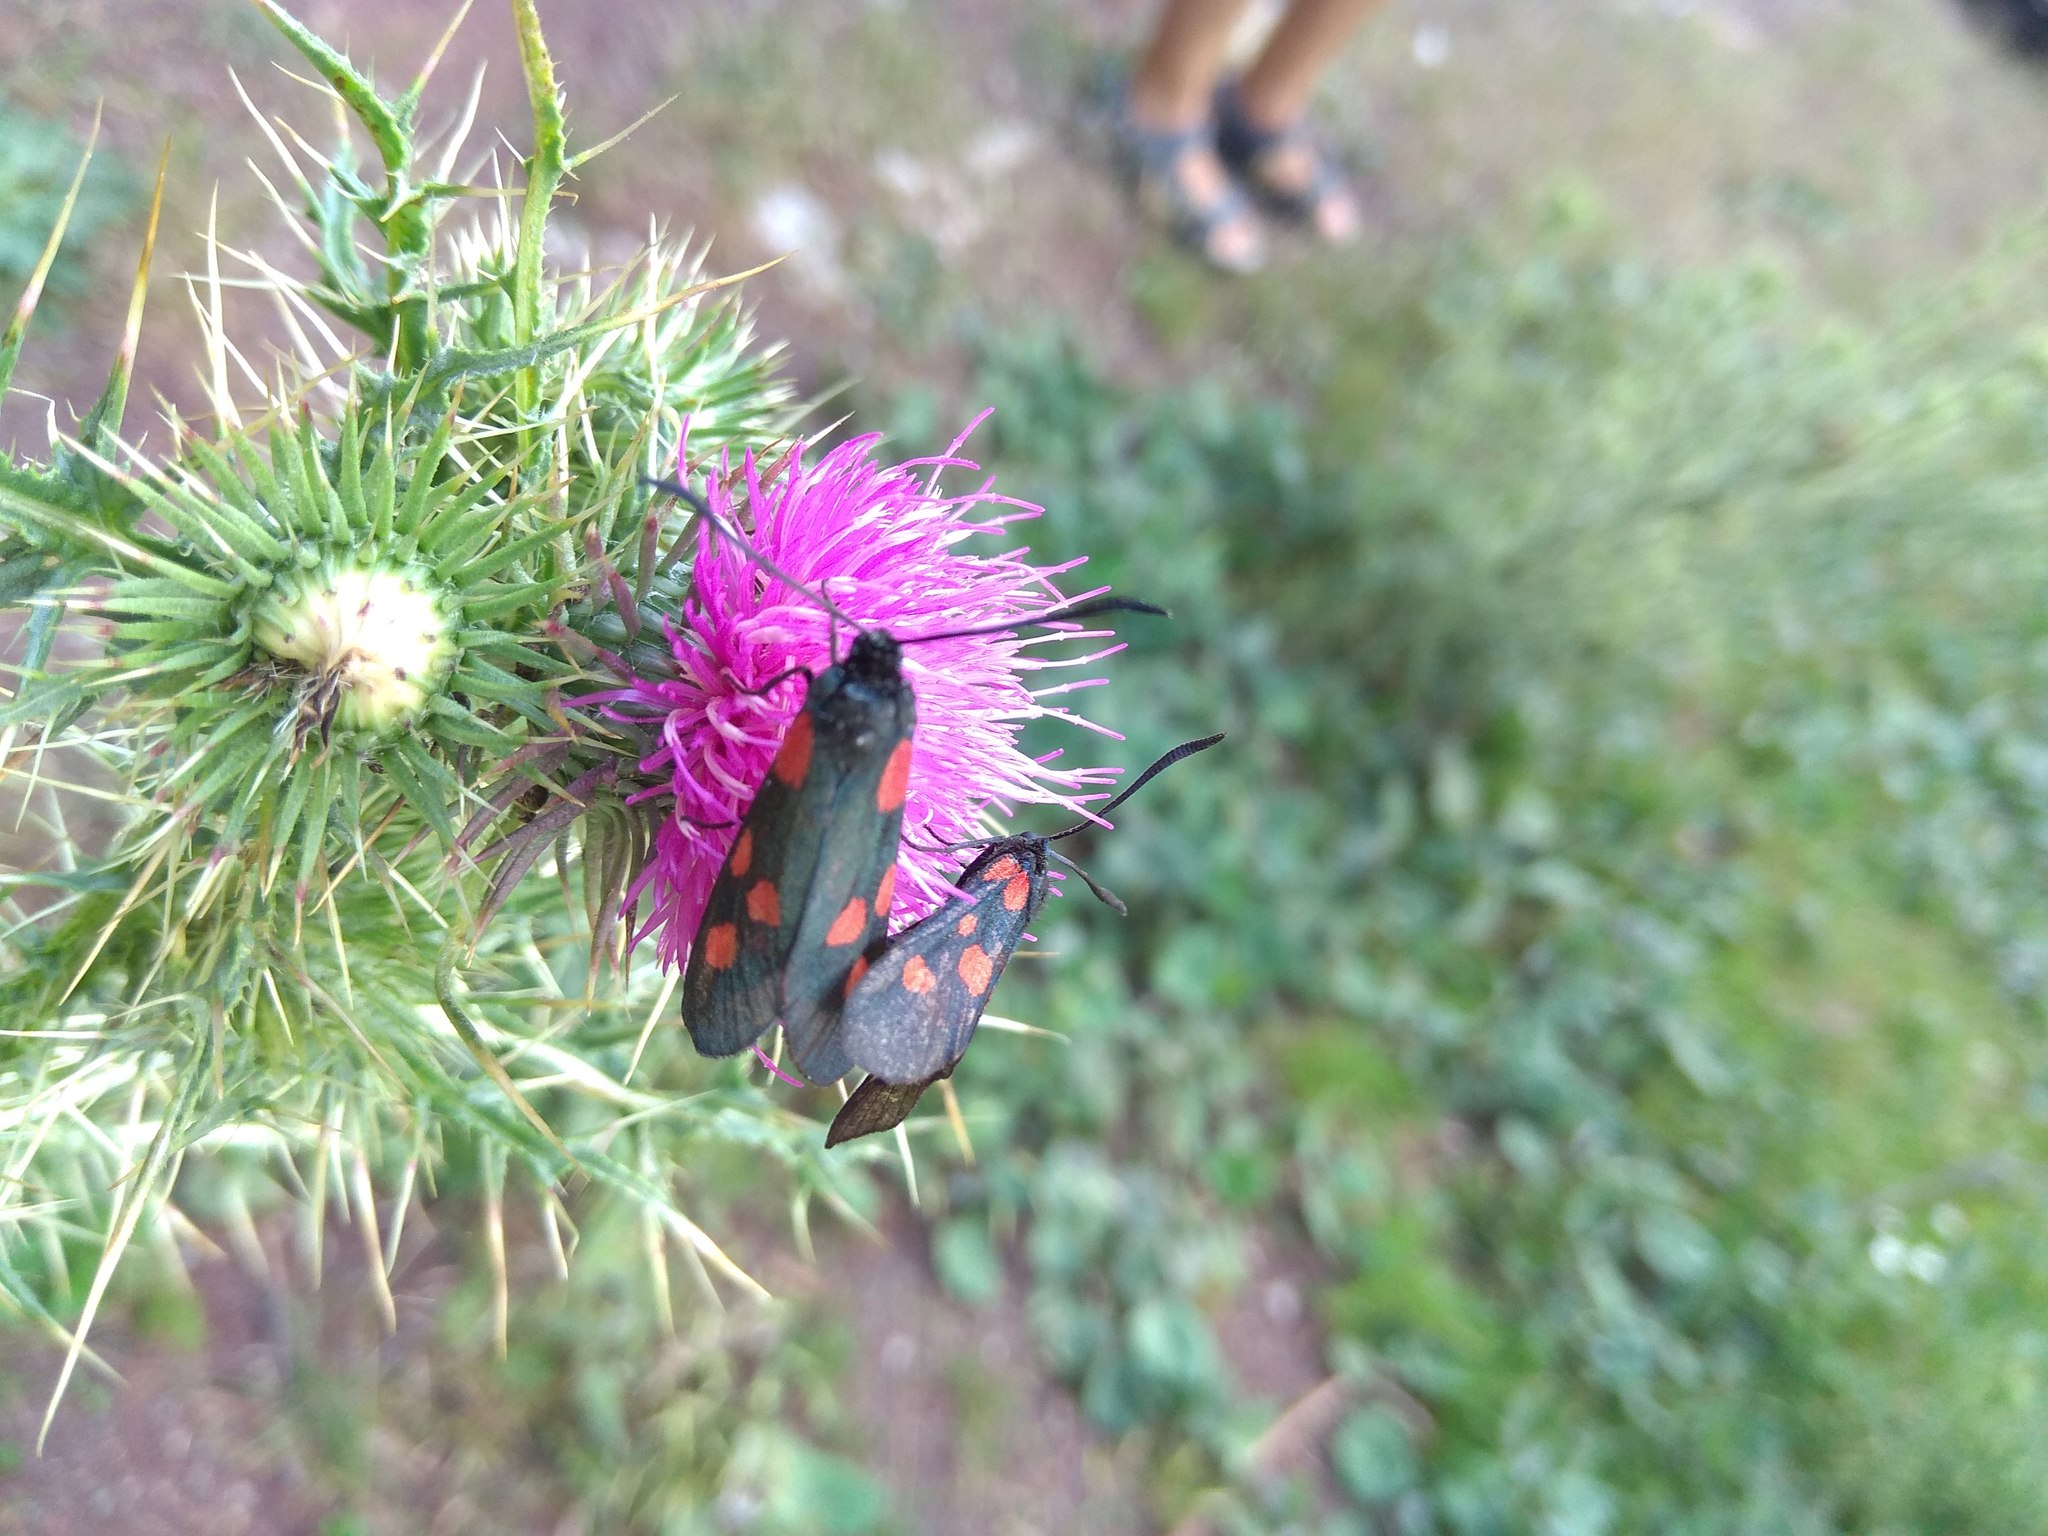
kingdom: Animalia
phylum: Arthropoda
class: Insecta
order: Lepidoptera
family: Zygaenidae
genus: Zygaena
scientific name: Zygaena lonicerae
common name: Narrow-bordered five-spot burnet
